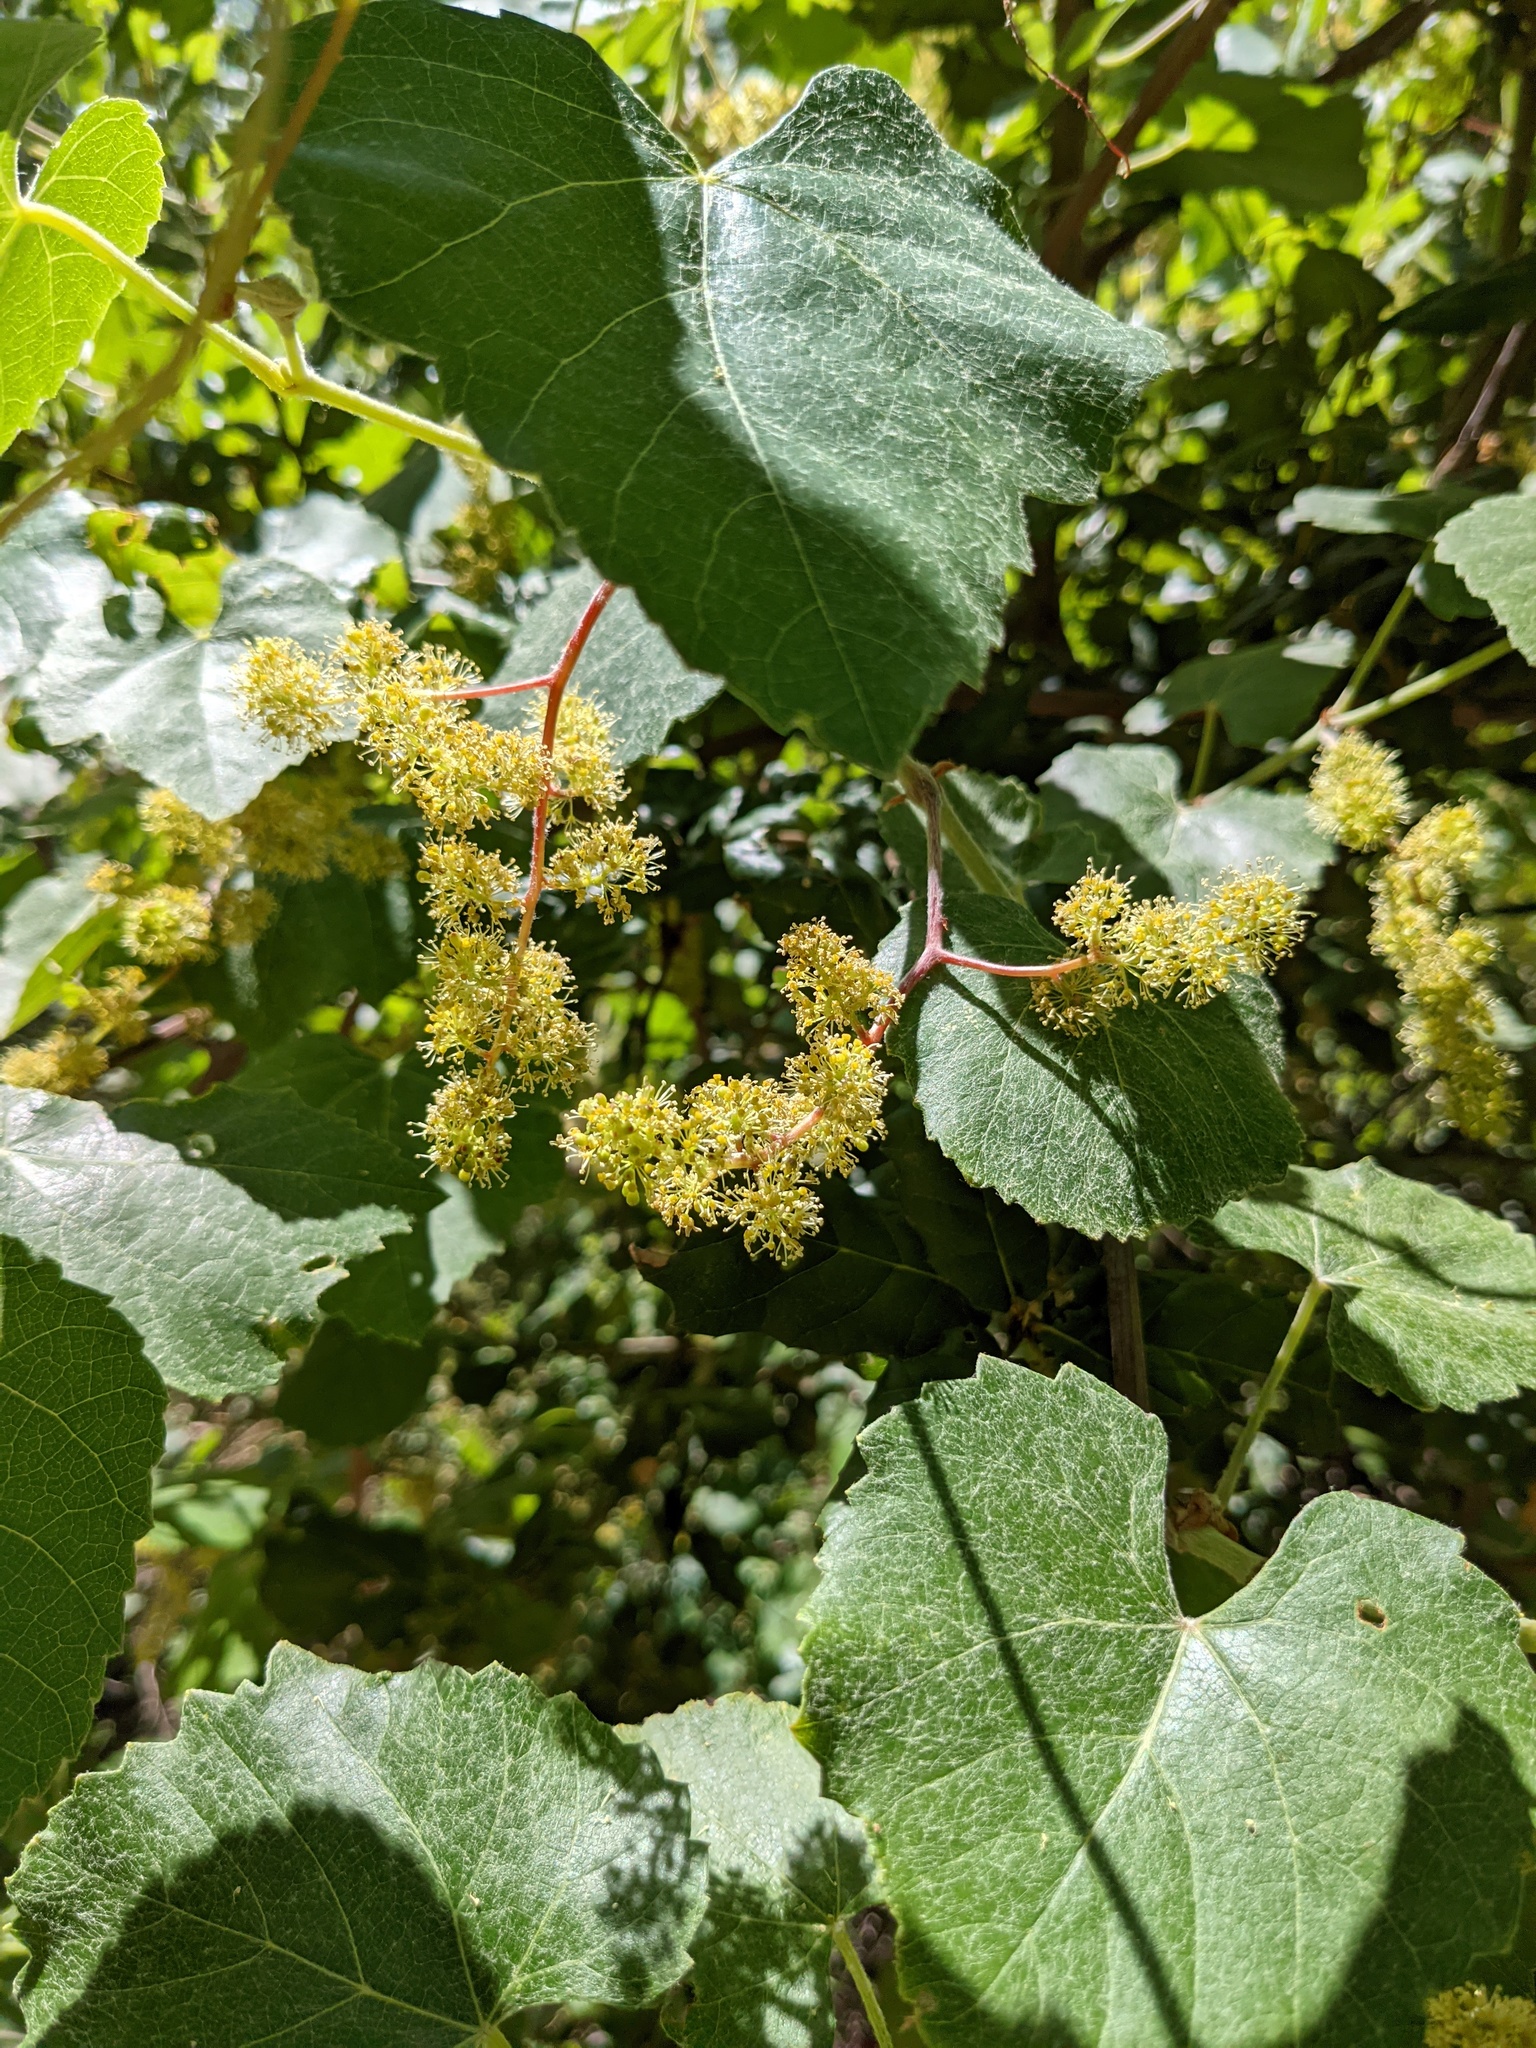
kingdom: Plantae
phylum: Tracheophyta
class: Magnoliopsida
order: Vitales
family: Vitaceae
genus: Vitis
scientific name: Vitis californica
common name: California wild grape
